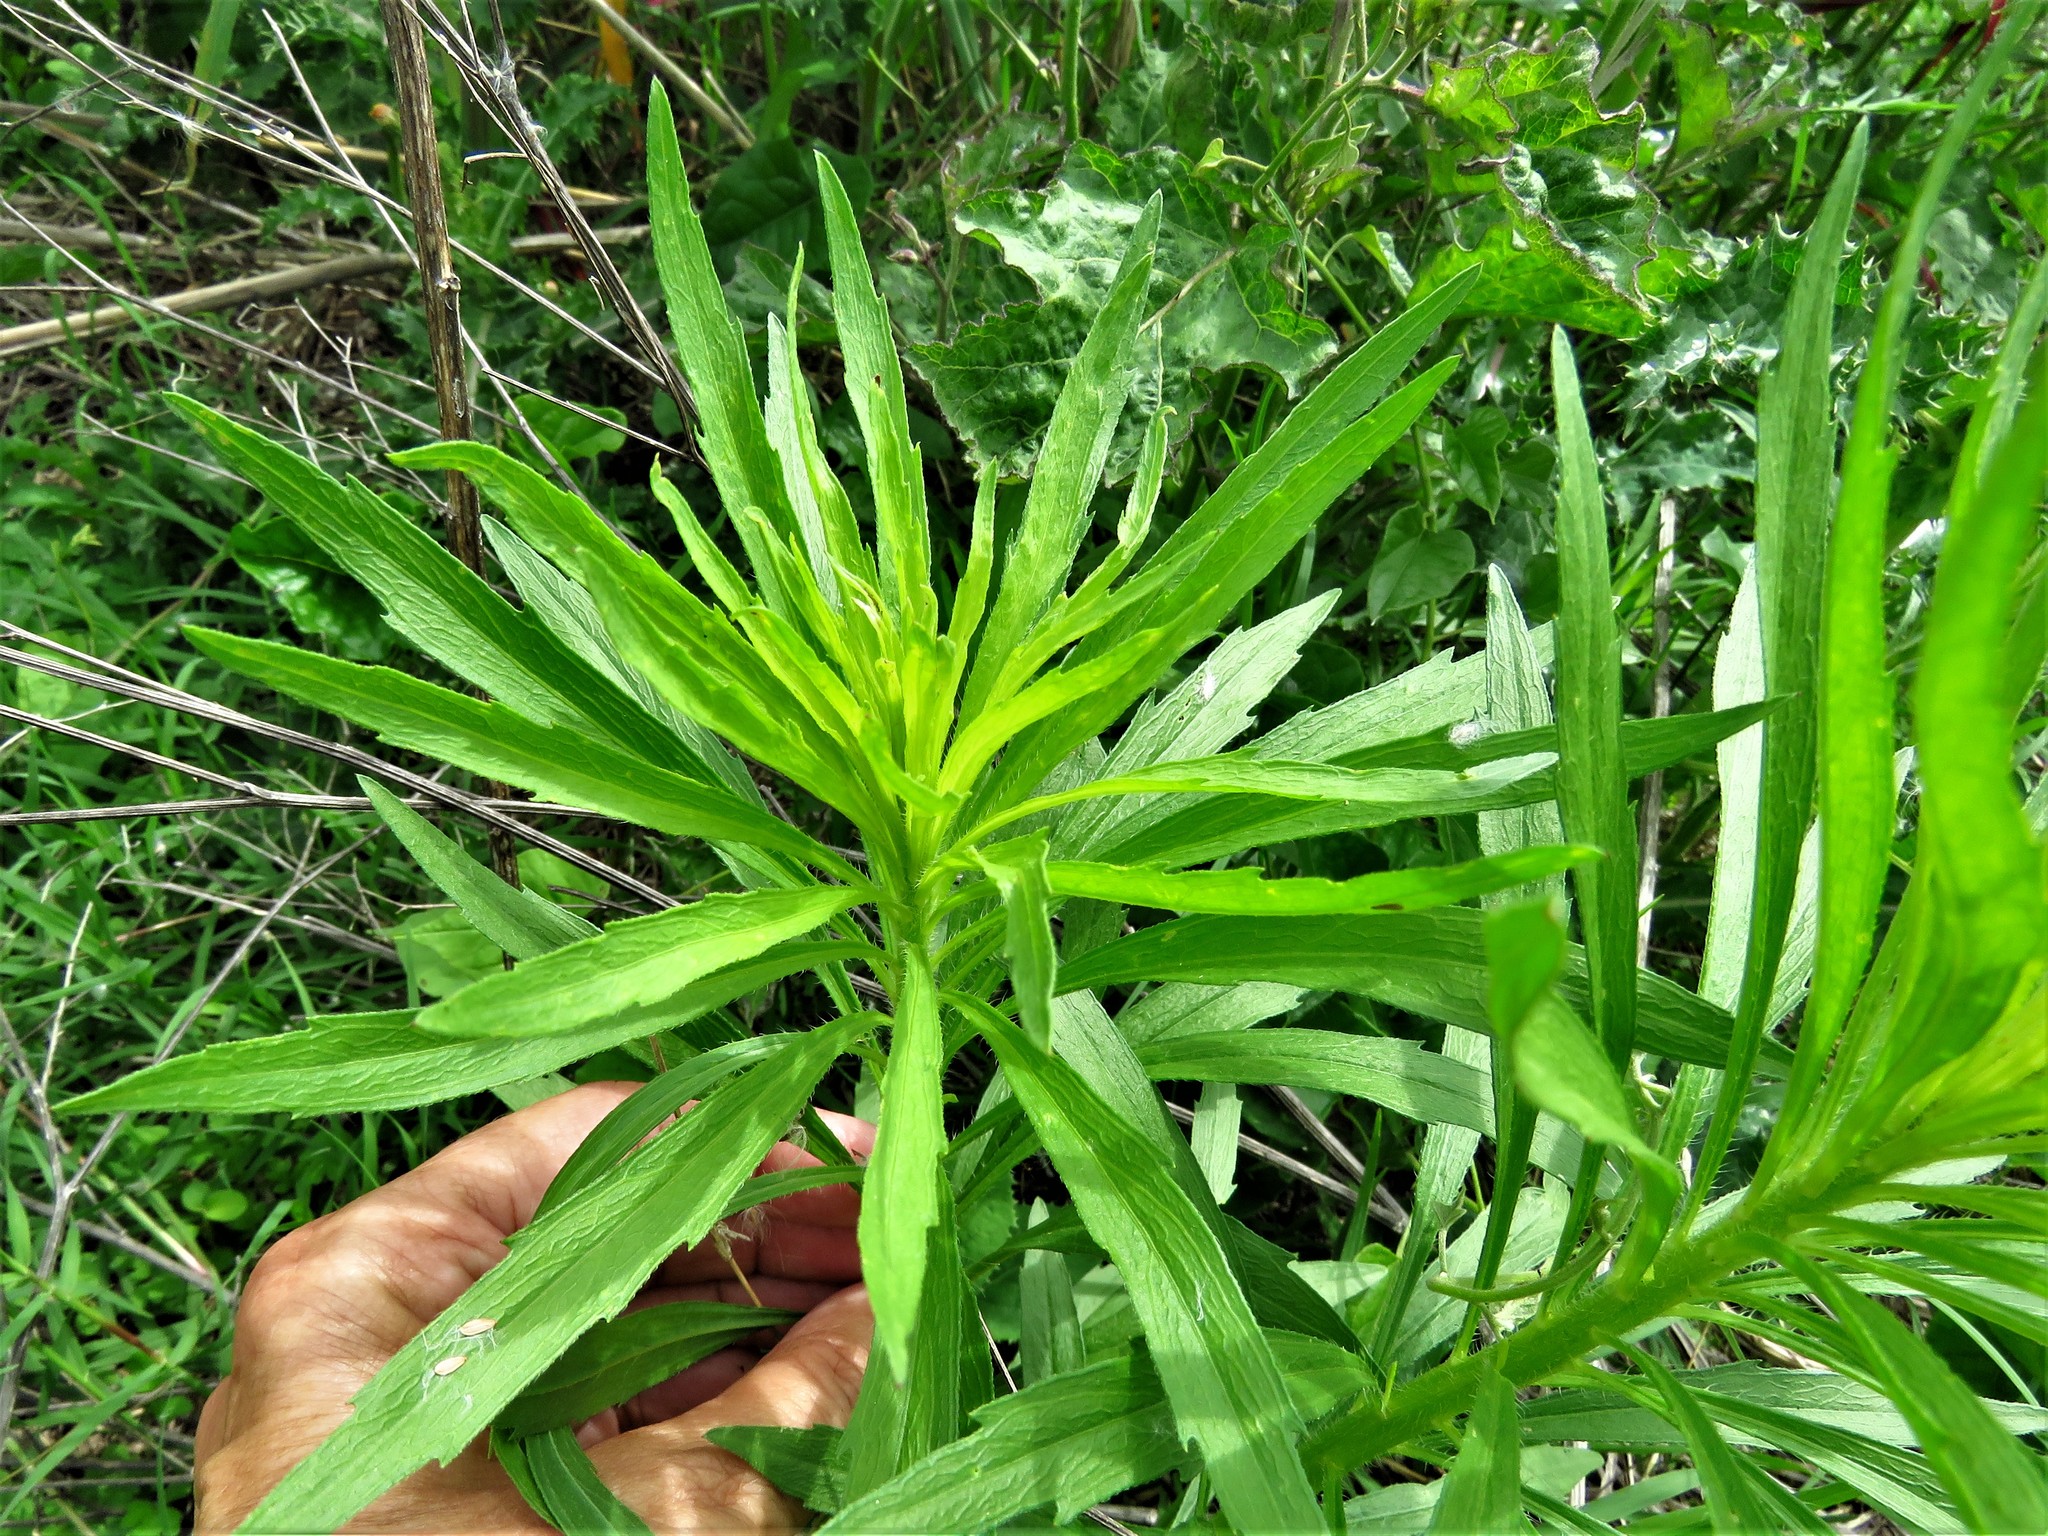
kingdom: Plantae
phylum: Tracheophyta
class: Magnoliopsida
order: Asterales
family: Asteraceae
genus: Erigeron
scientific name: Erigeron canadensis
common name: Canadian fleabane
